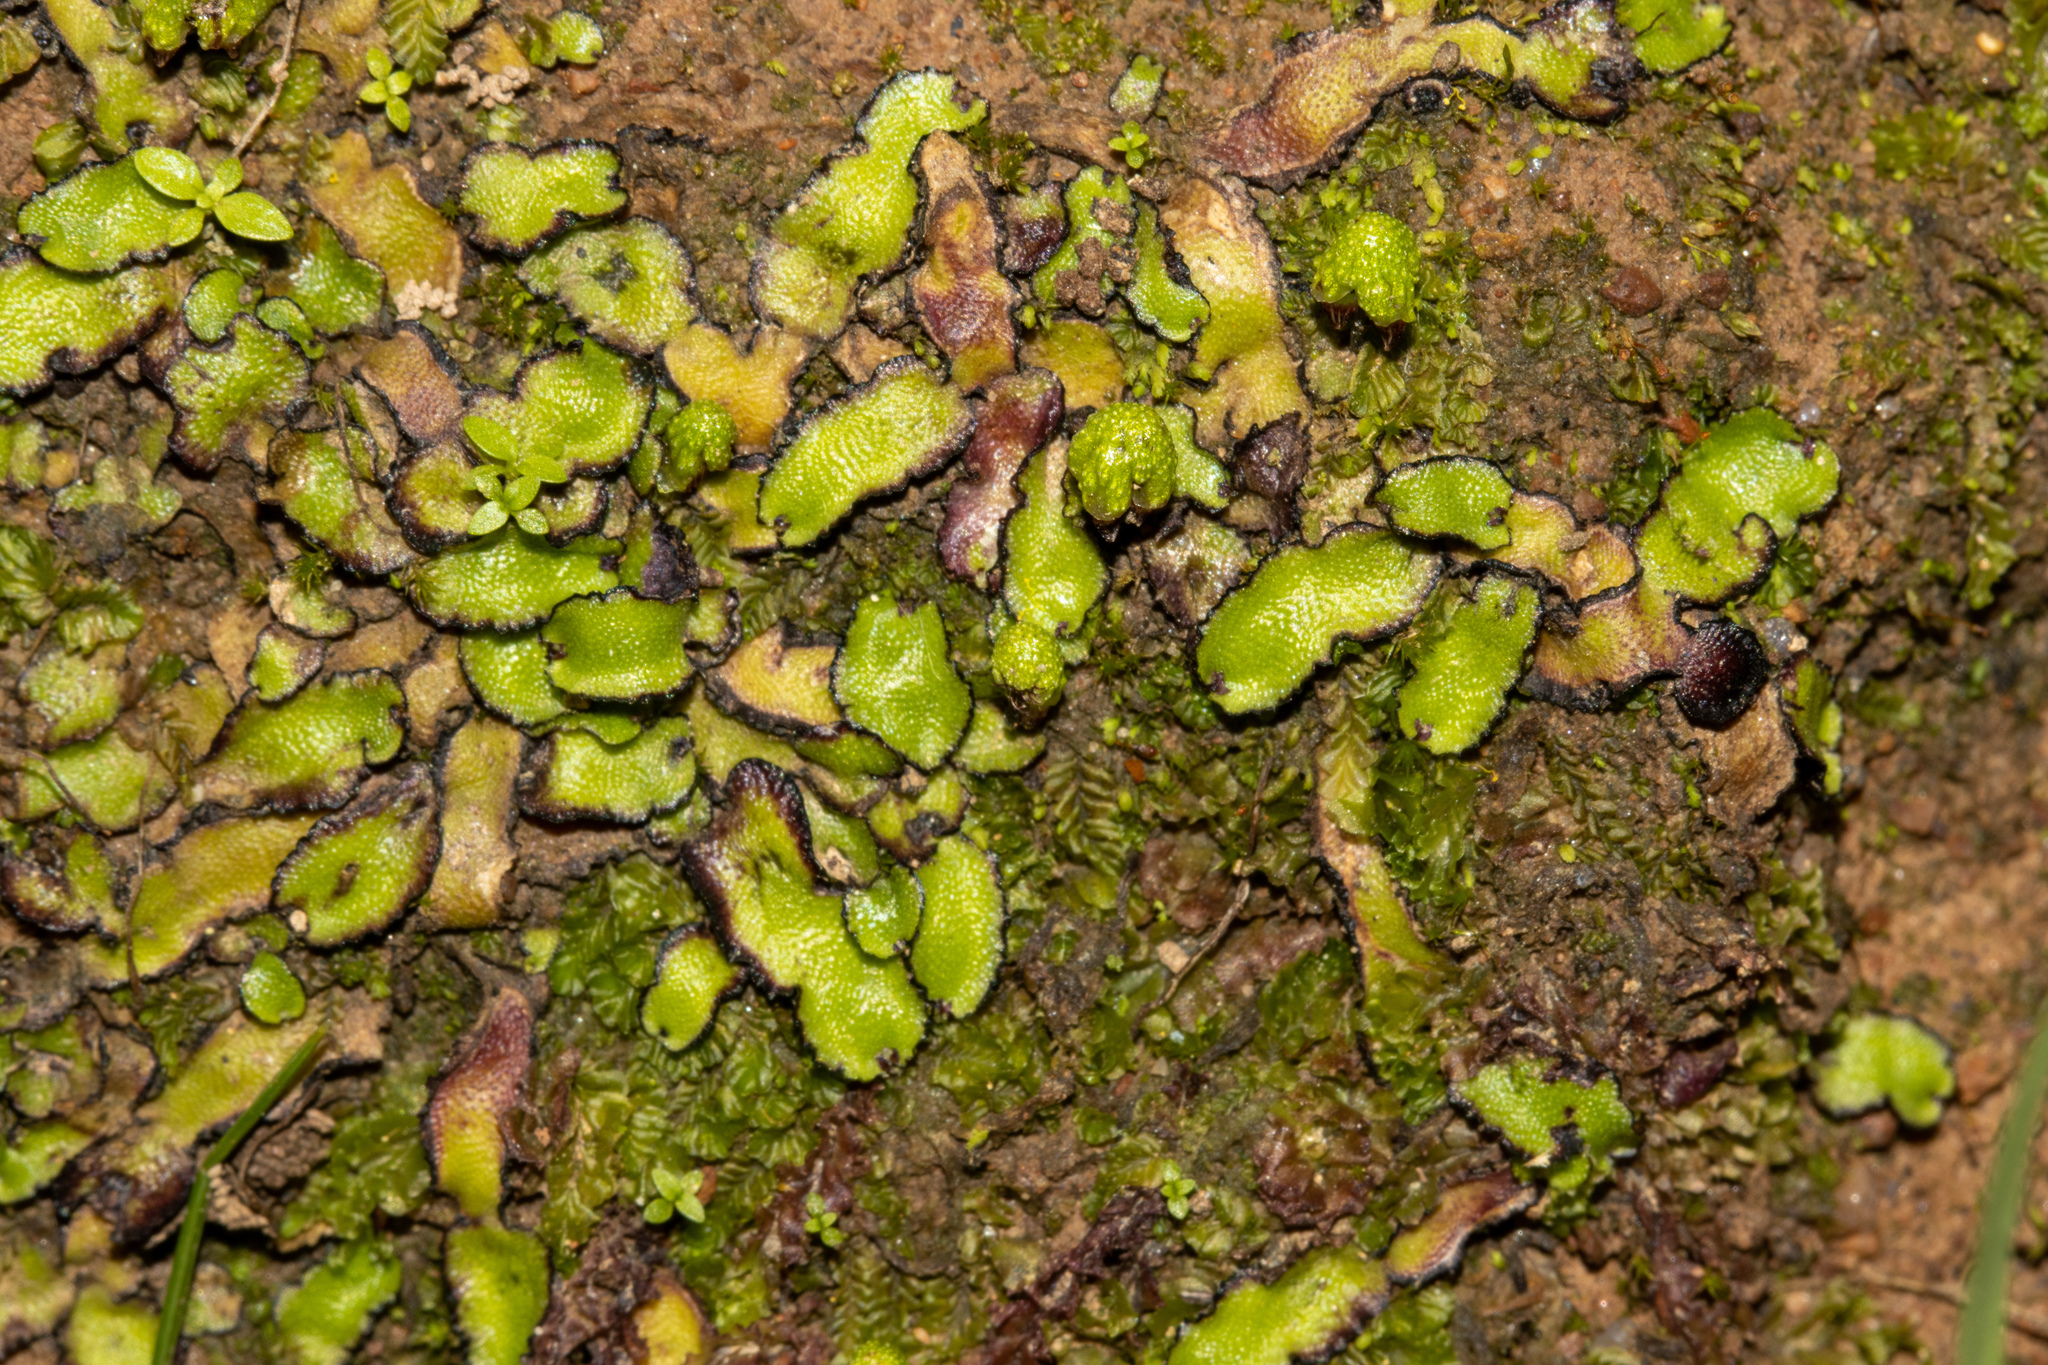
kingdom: Plantae
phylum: Marchantiophyta
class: Marchantiopsida
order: Marchantiales
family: Aytoniaceae
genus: Asterella
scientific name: Asterella drummondii
